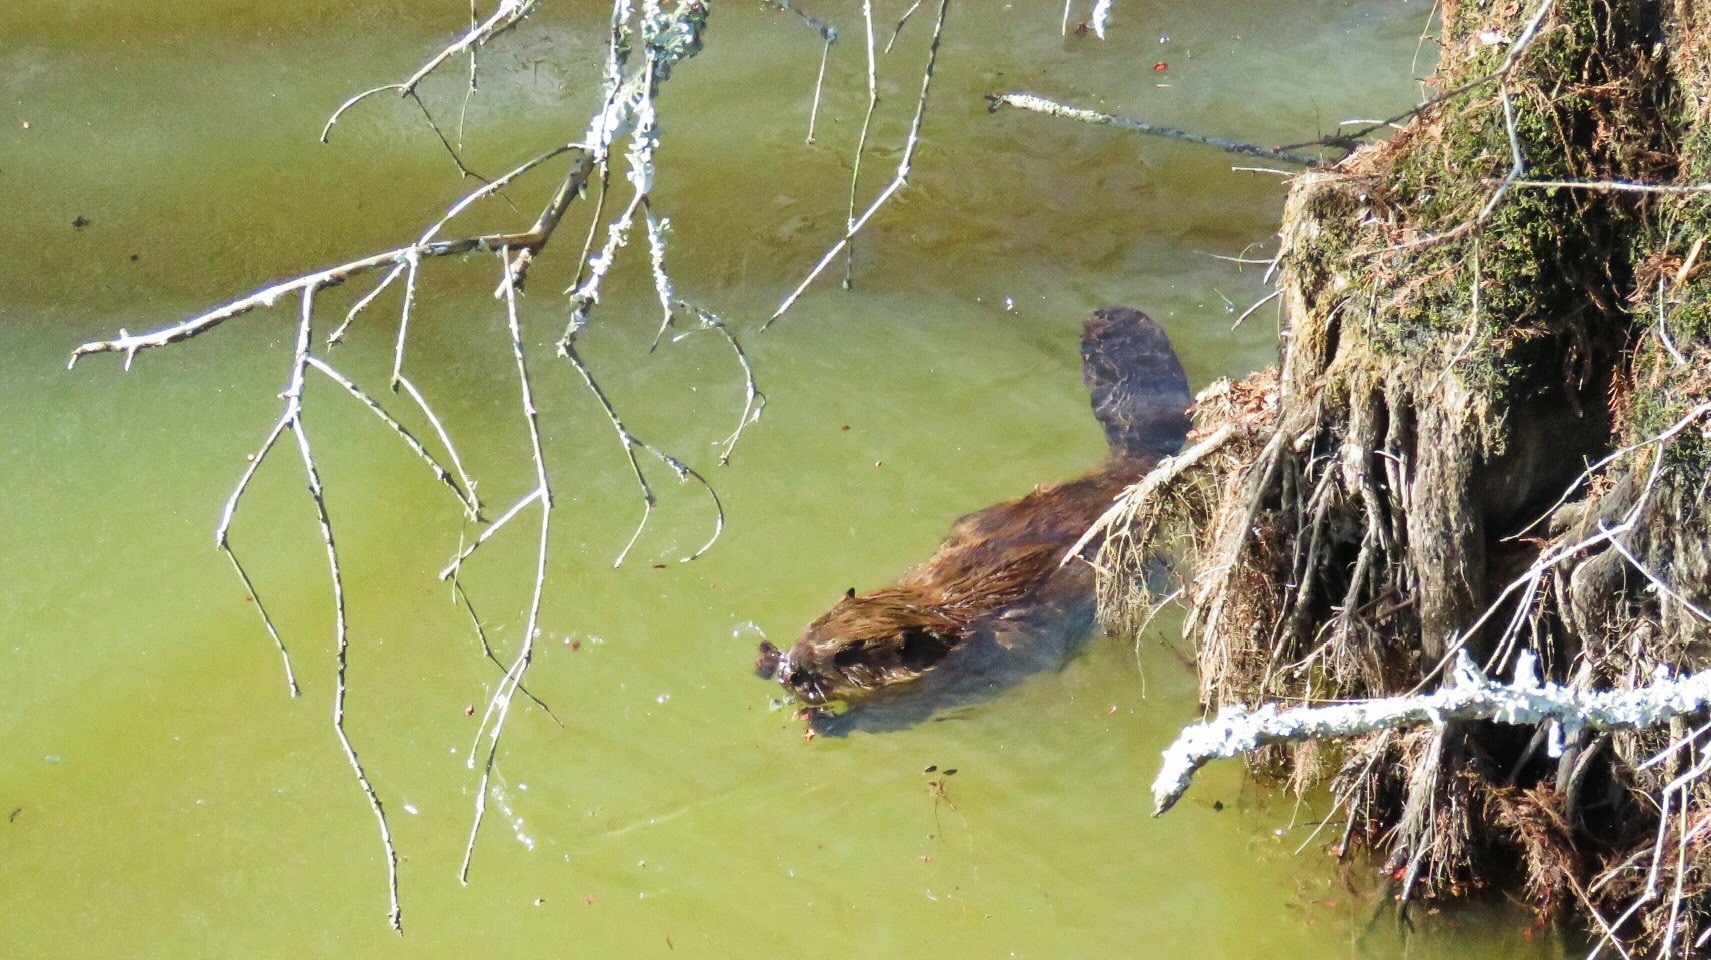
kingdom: Animalia
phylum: Chordata
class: Mammalia
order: Rodentia
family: Castoridae
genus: Castor
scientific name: Castor canadensis
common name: American beaver
